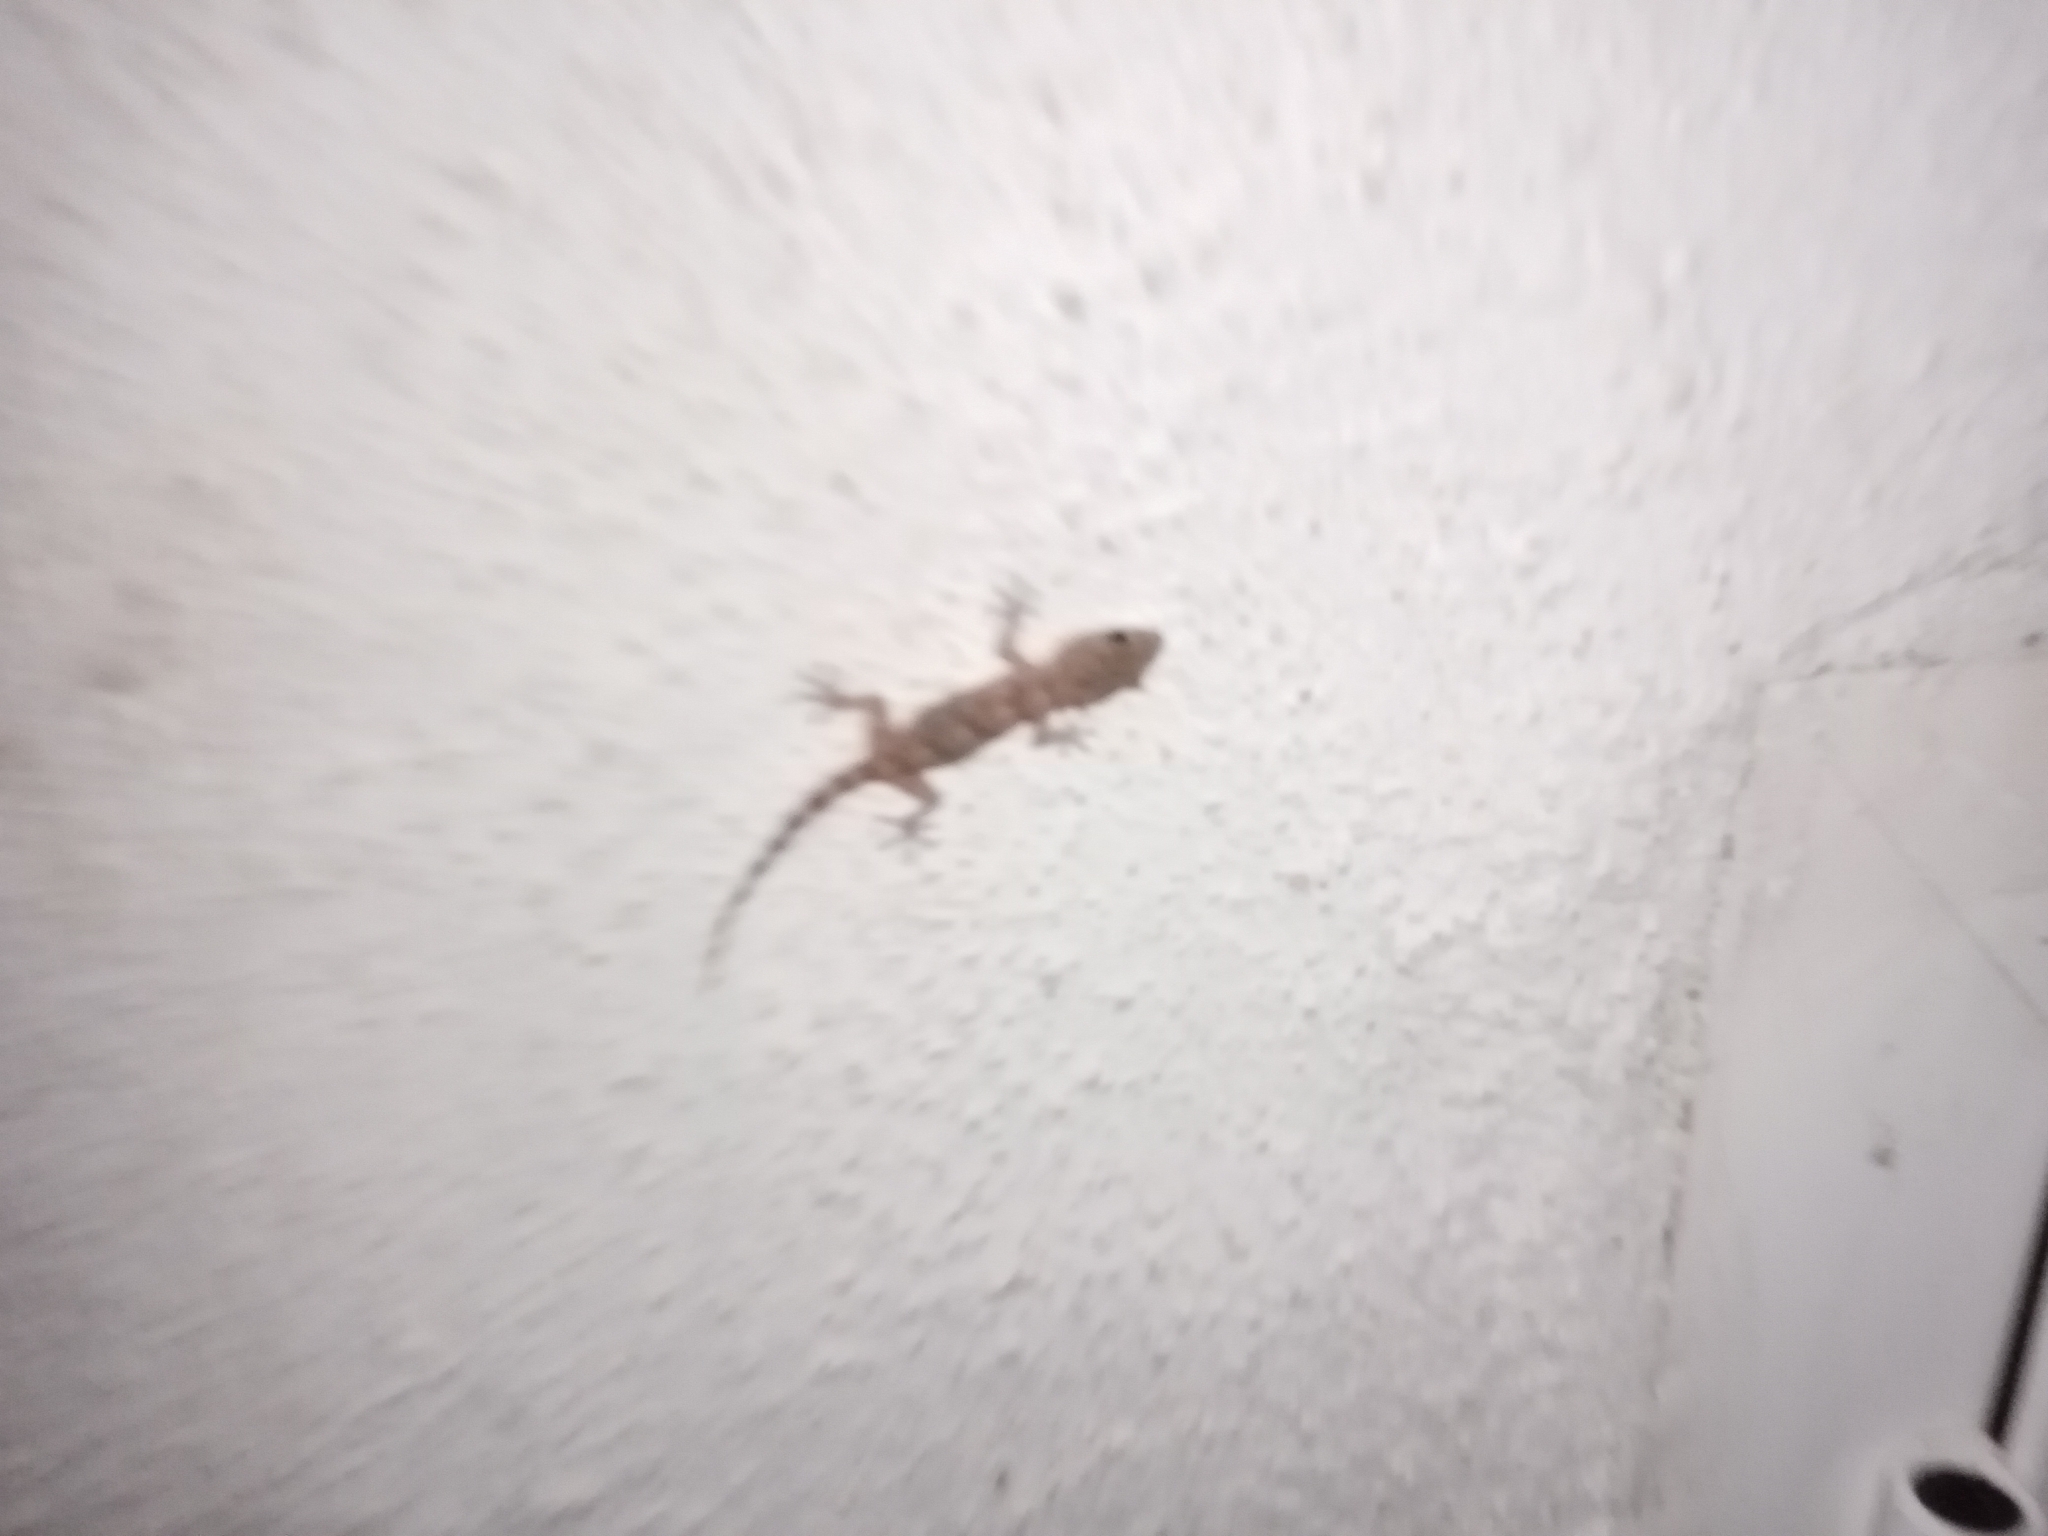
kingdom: Animalia
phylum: Chordata
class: Squamata
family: Phyllodactylidae
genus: Tarentola
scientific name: Tarentola mauritanica
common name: Moorish gecko
